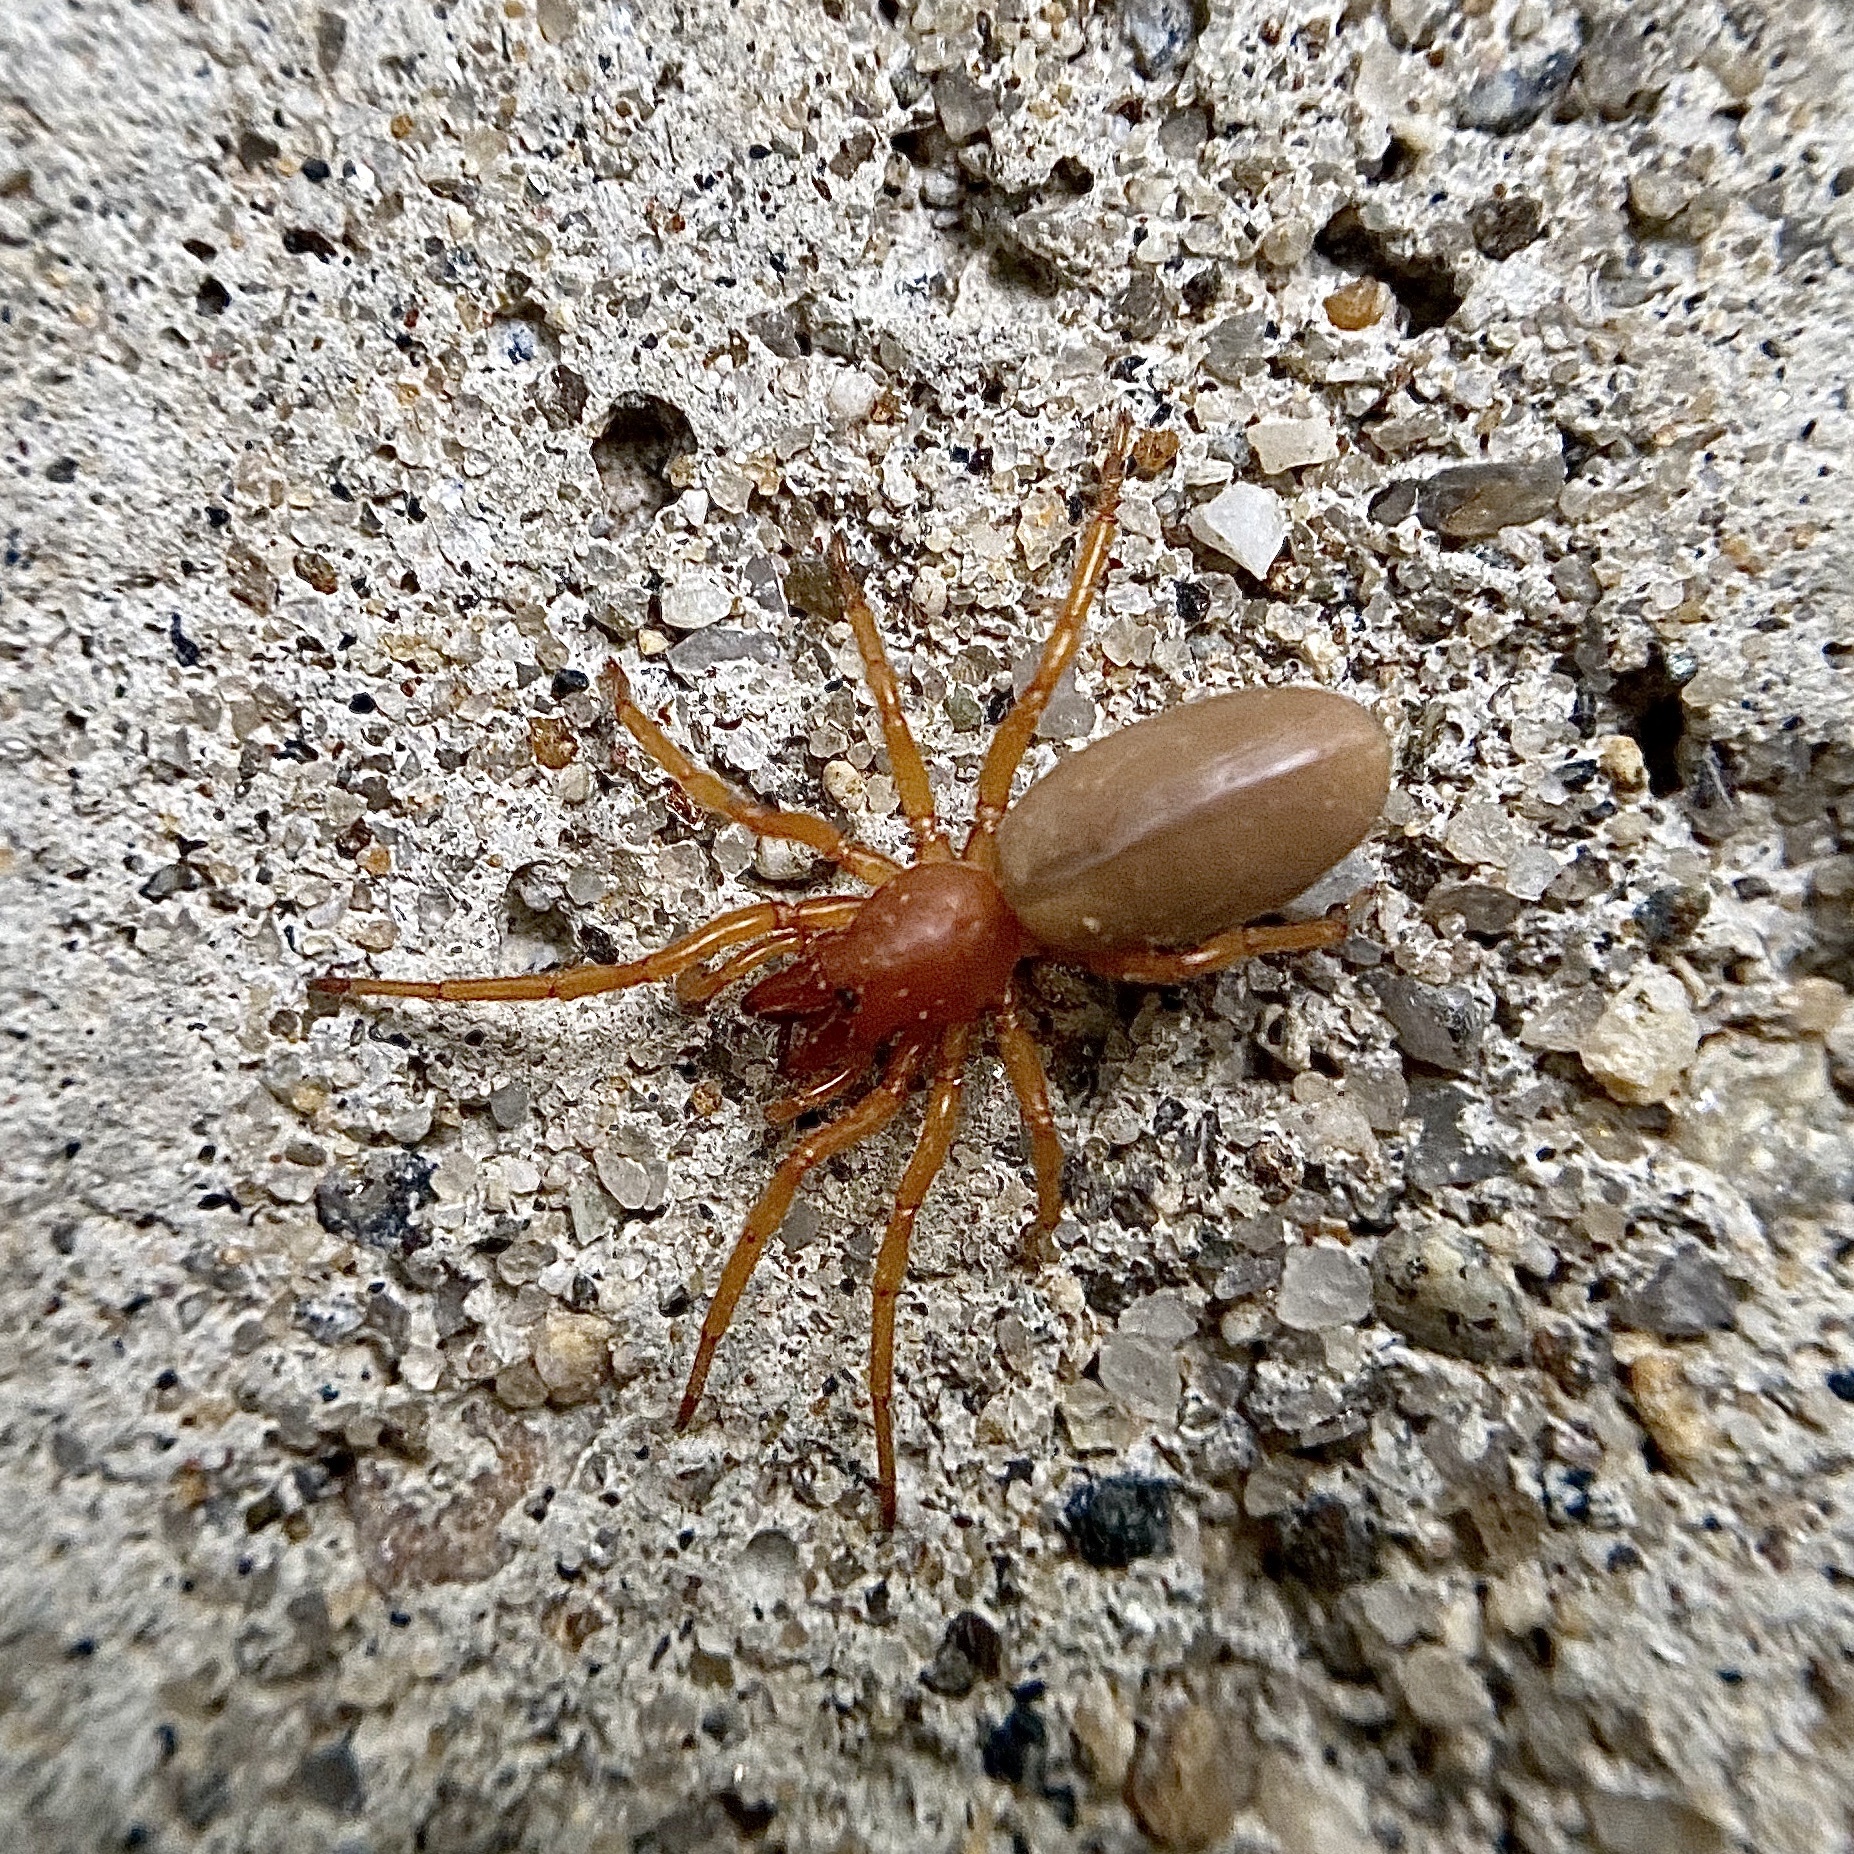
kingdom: Animalia
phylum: Arthropoda
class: Arachnida
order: Araneae
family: Dysderidae
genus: Dysdera
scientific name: Dysdera crocata
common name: Woodlouse spider
